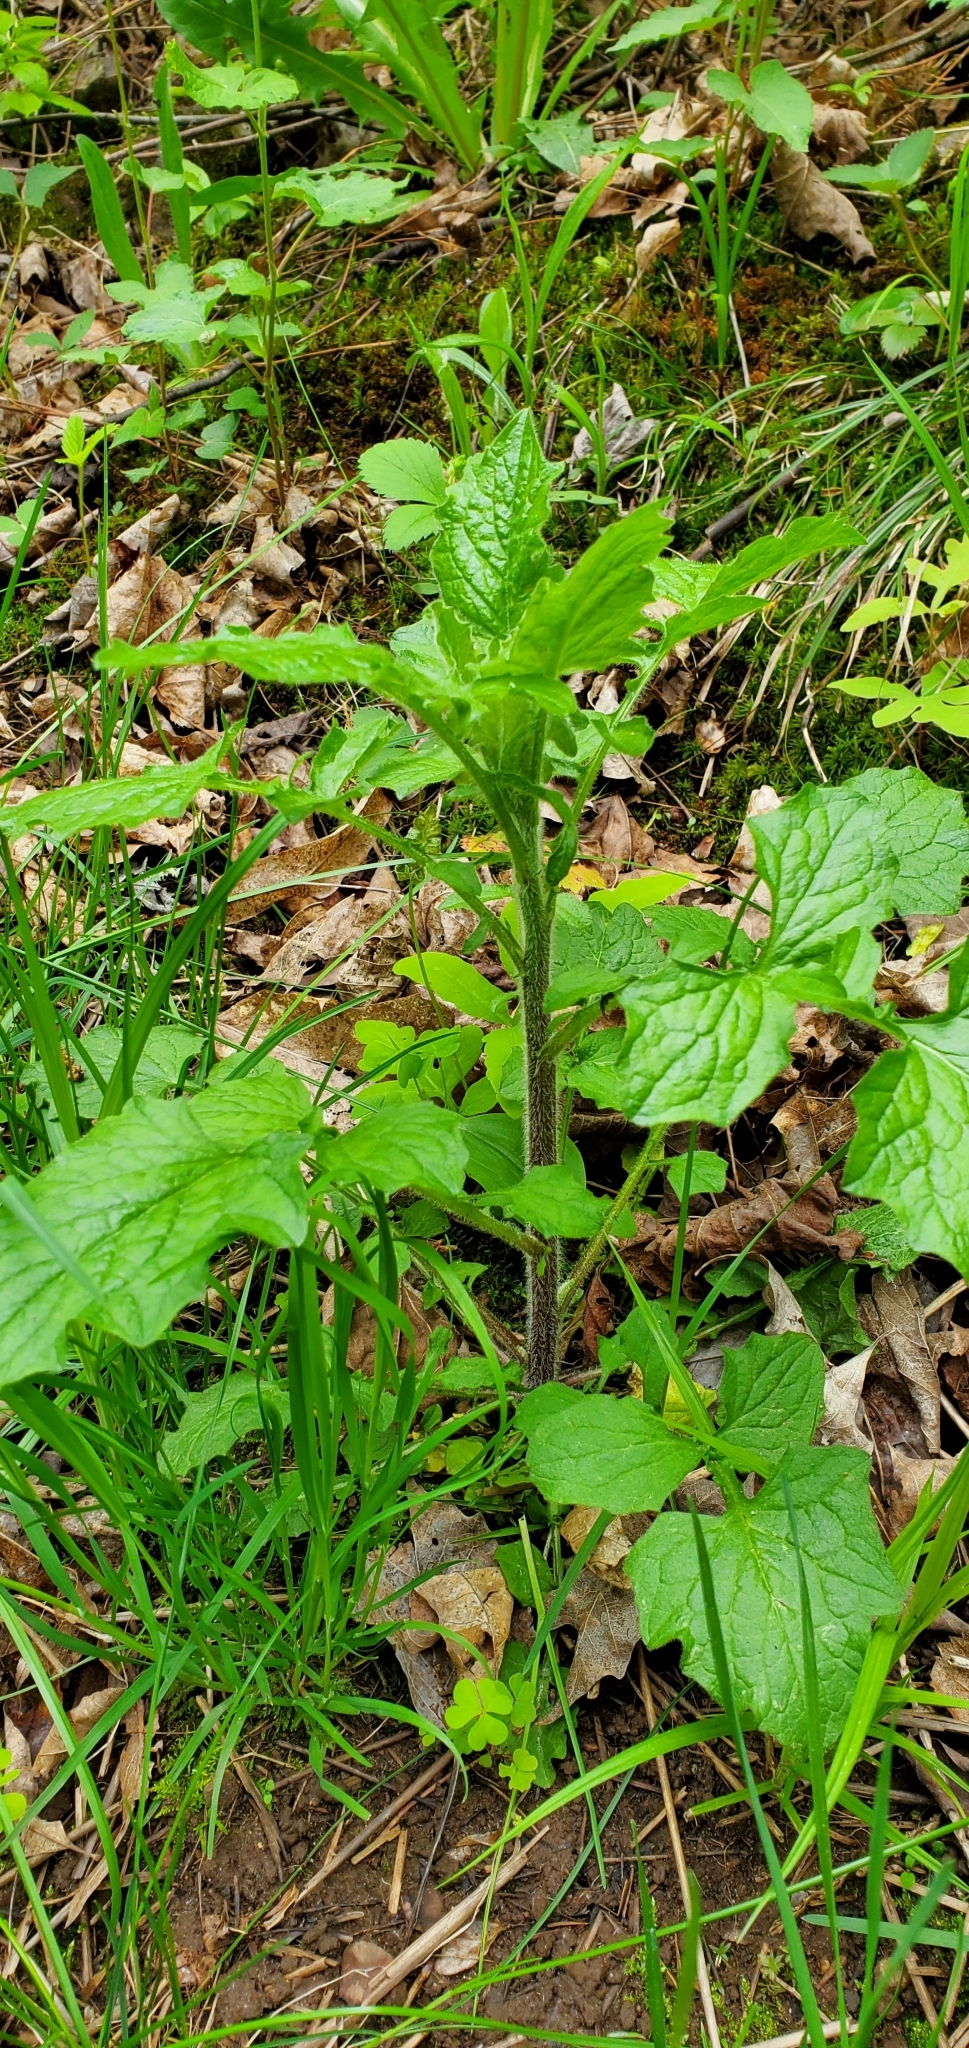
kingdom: Plantae
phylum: Tracheophyta
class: Magnoliopsida
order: Asterales
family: Asteraceae
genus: Lapsana
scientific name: Lapsana communis
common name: Nipplewort
